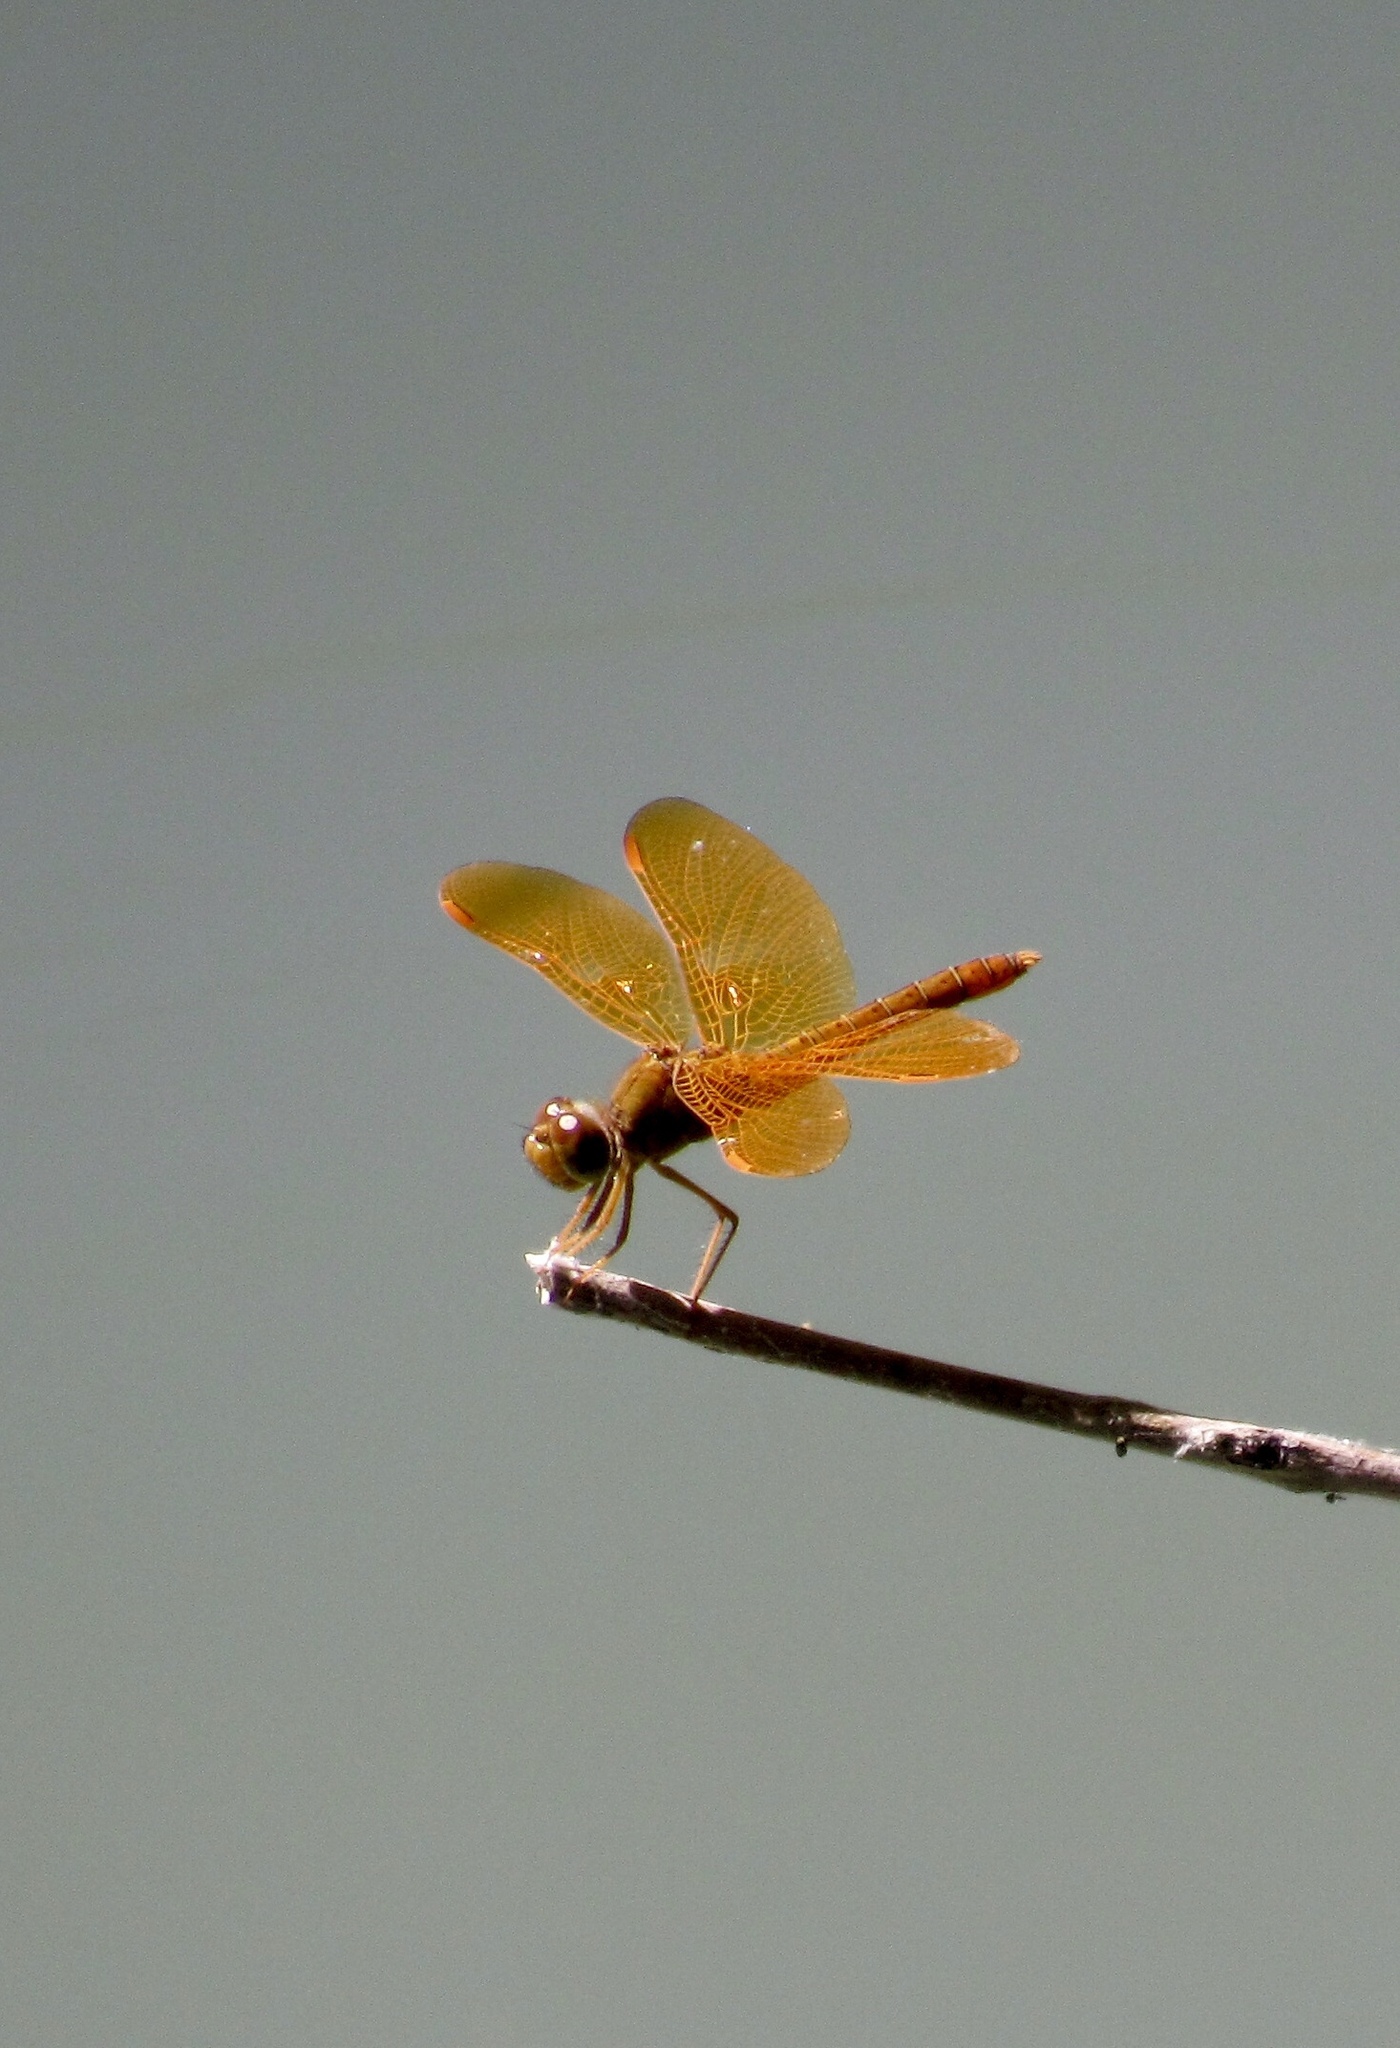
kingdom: Animalia
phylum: Arthropoda
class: Insecta
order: Odonata
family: Libellulidae
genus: Perithemis
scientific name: Perithemis intensa
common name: Mexican amberwing
